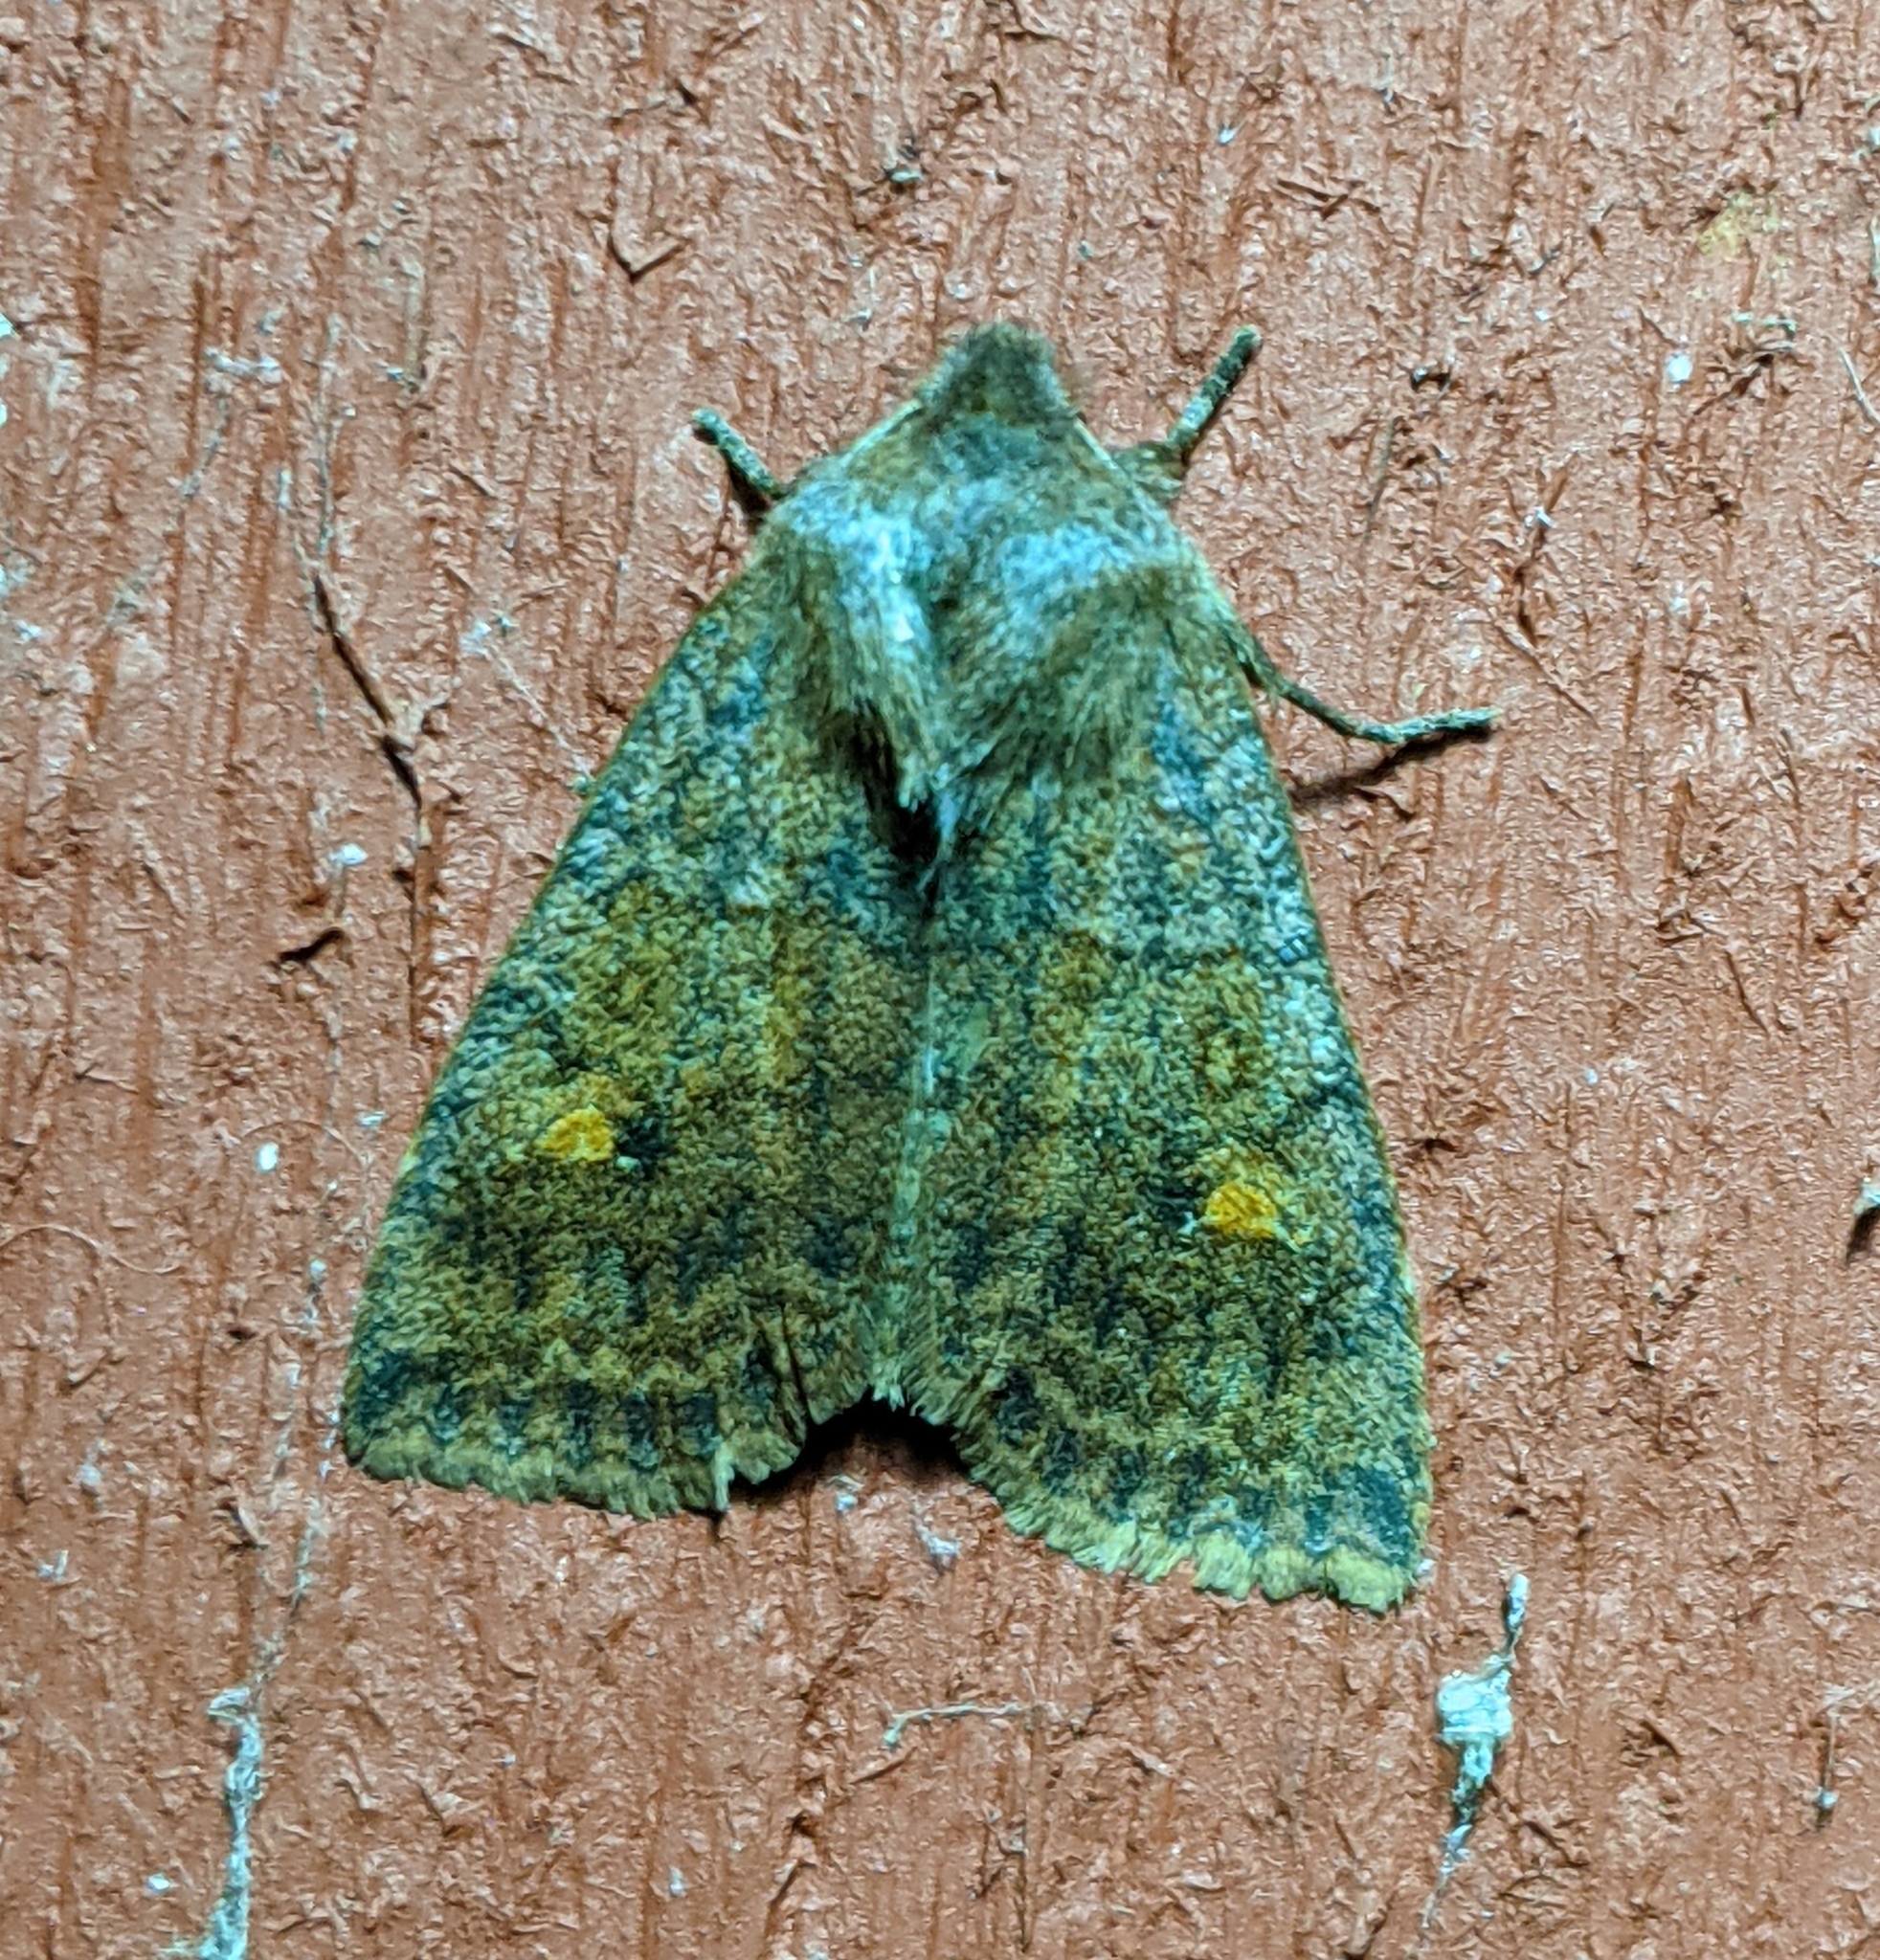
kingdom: Animalia
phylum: Arthropoda
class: Insecta
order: Lepidoptera
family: Noctuidae
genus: Eupsilia
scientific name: Eupsilia tristigmata
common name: Three-spotted sallow
